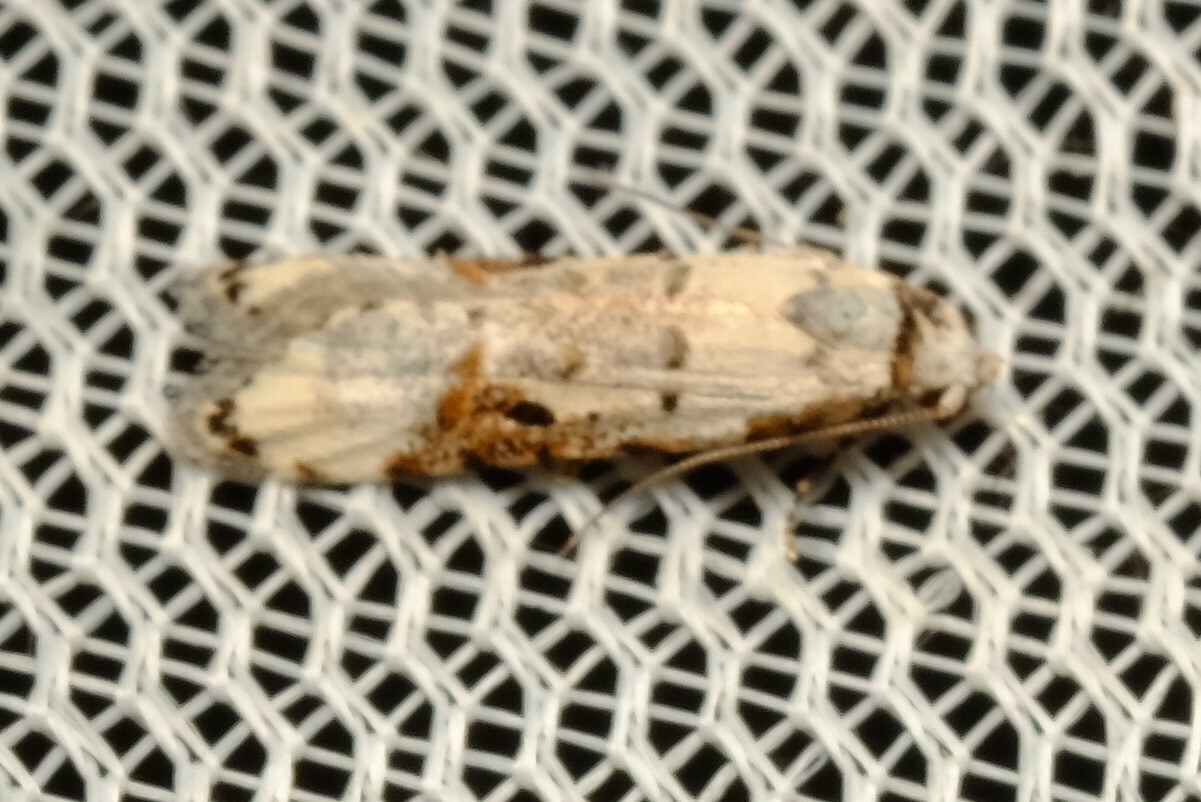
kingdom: Animalia
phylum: Arthropoda
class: Insecta
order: Lepidoptera
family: Carposinidae
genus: Sosineura
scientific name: Sosineura mimica
